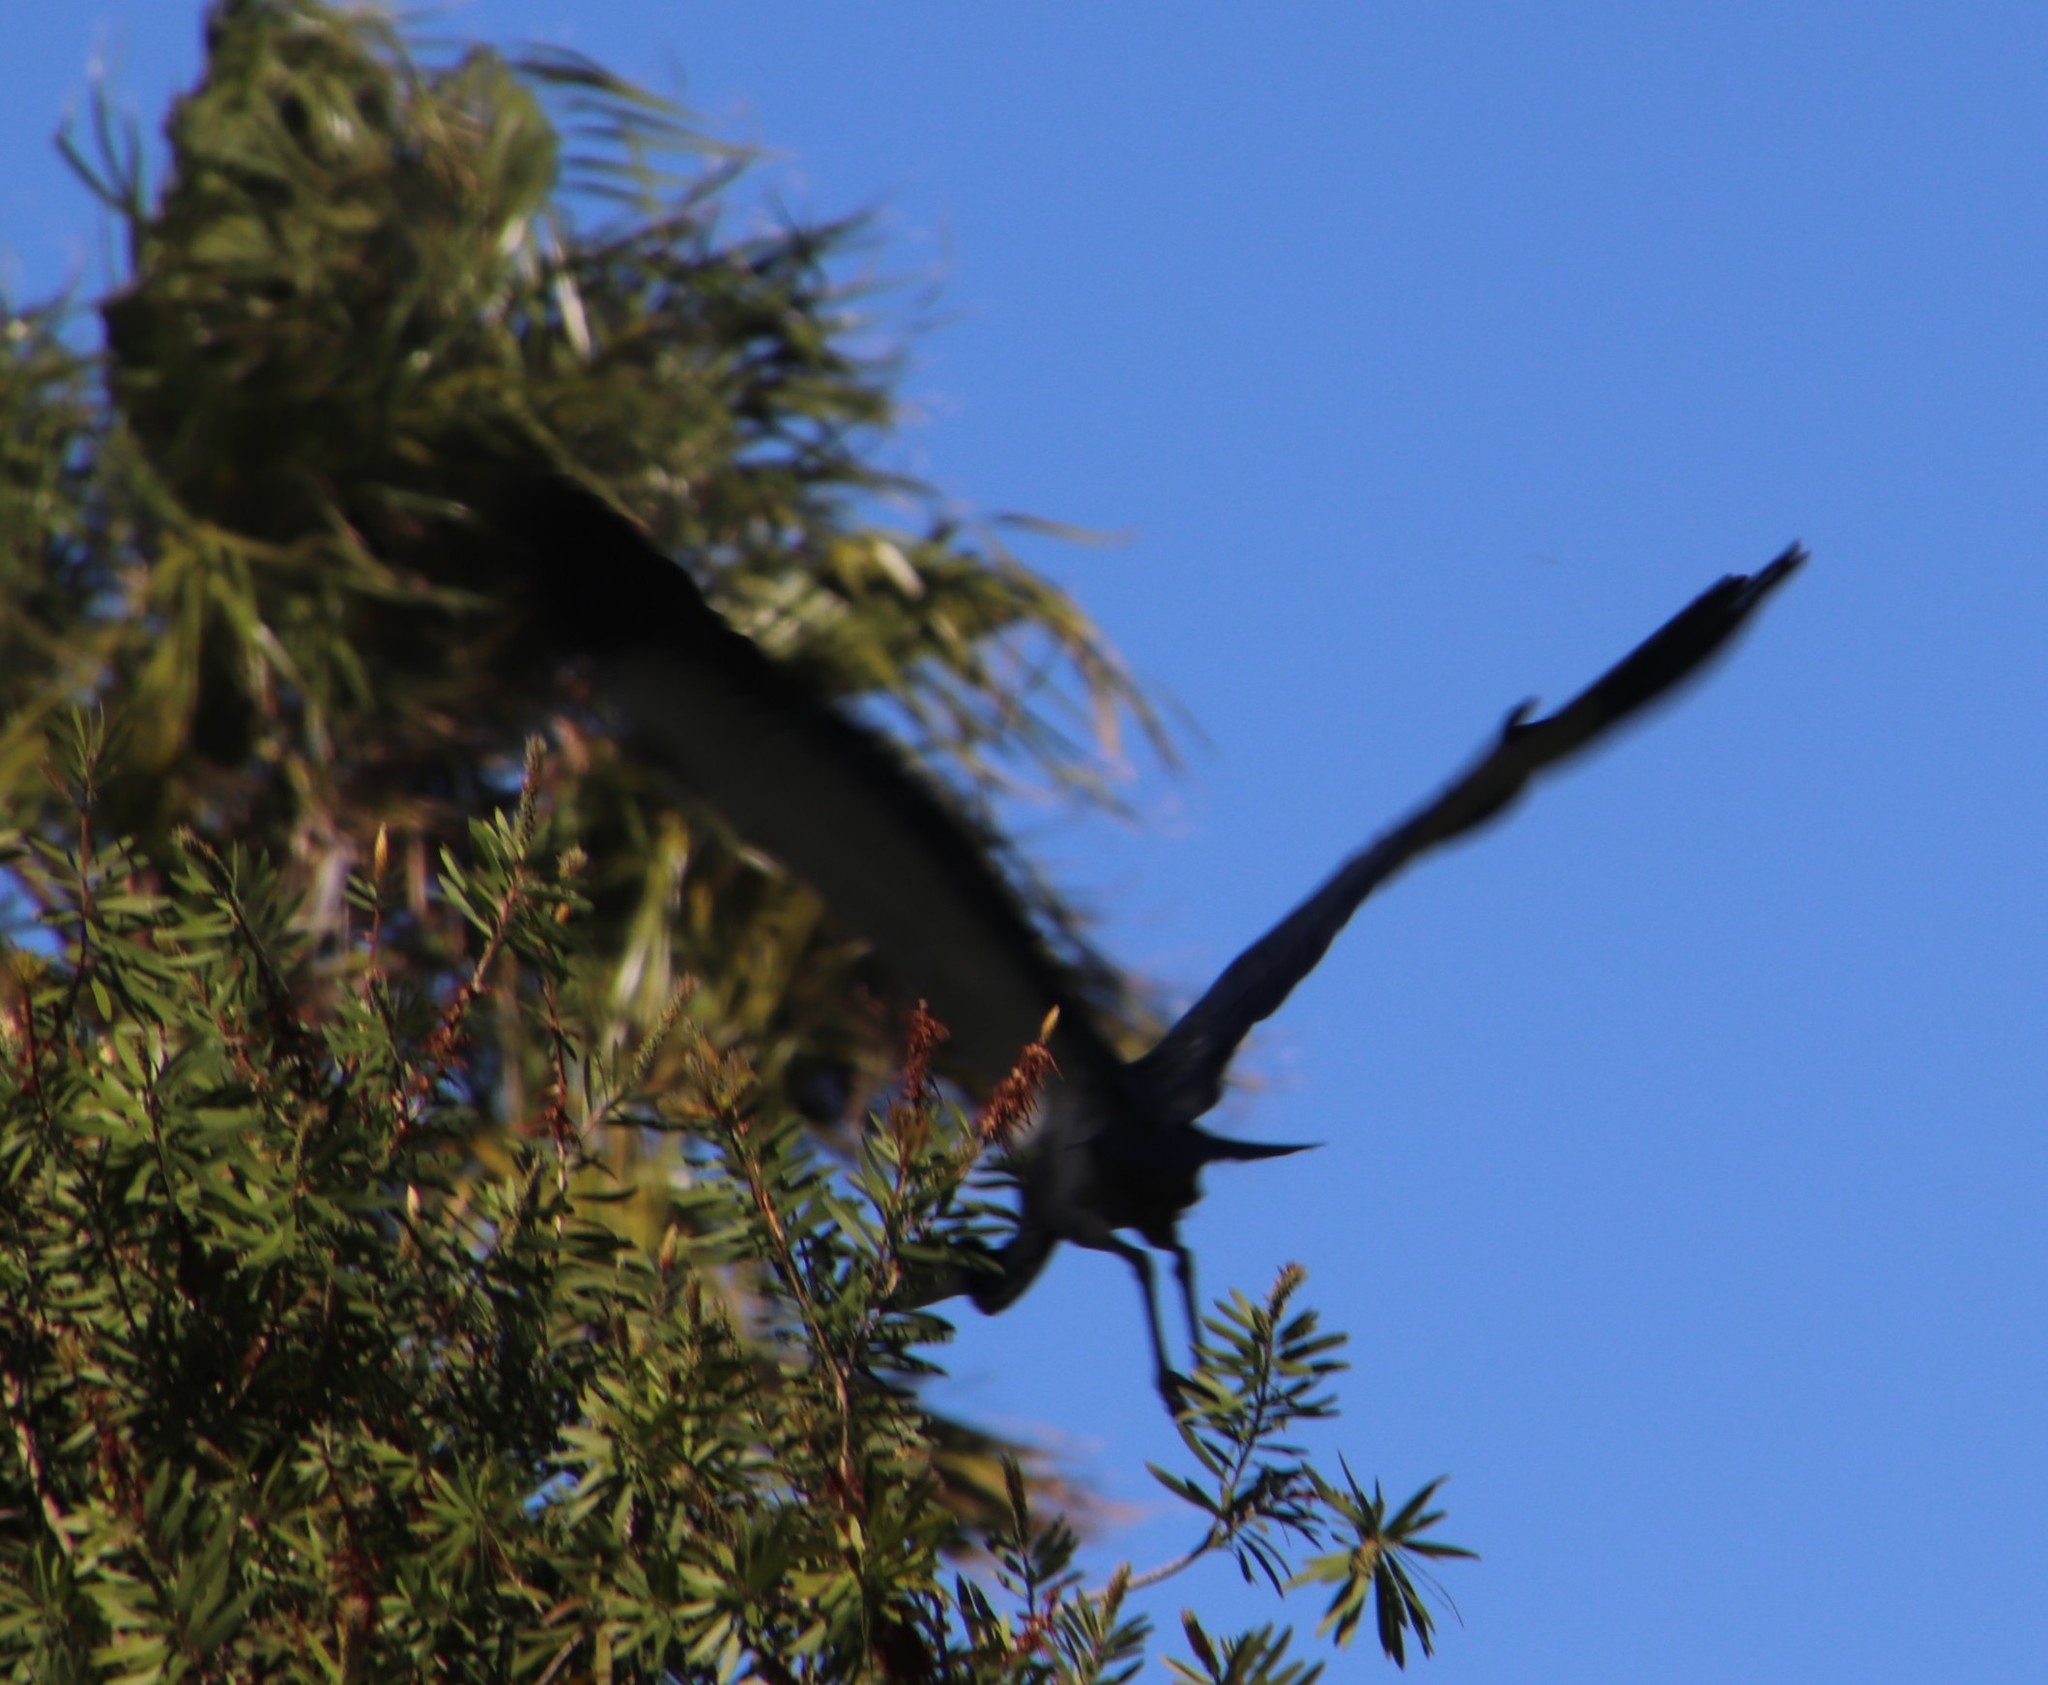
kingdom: Animalia
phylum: Chordata
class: Aves
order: Pelecaniformes
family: Ardeidae
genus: Ardea
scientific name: Ardea melanocephala
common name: Black-headed heron
